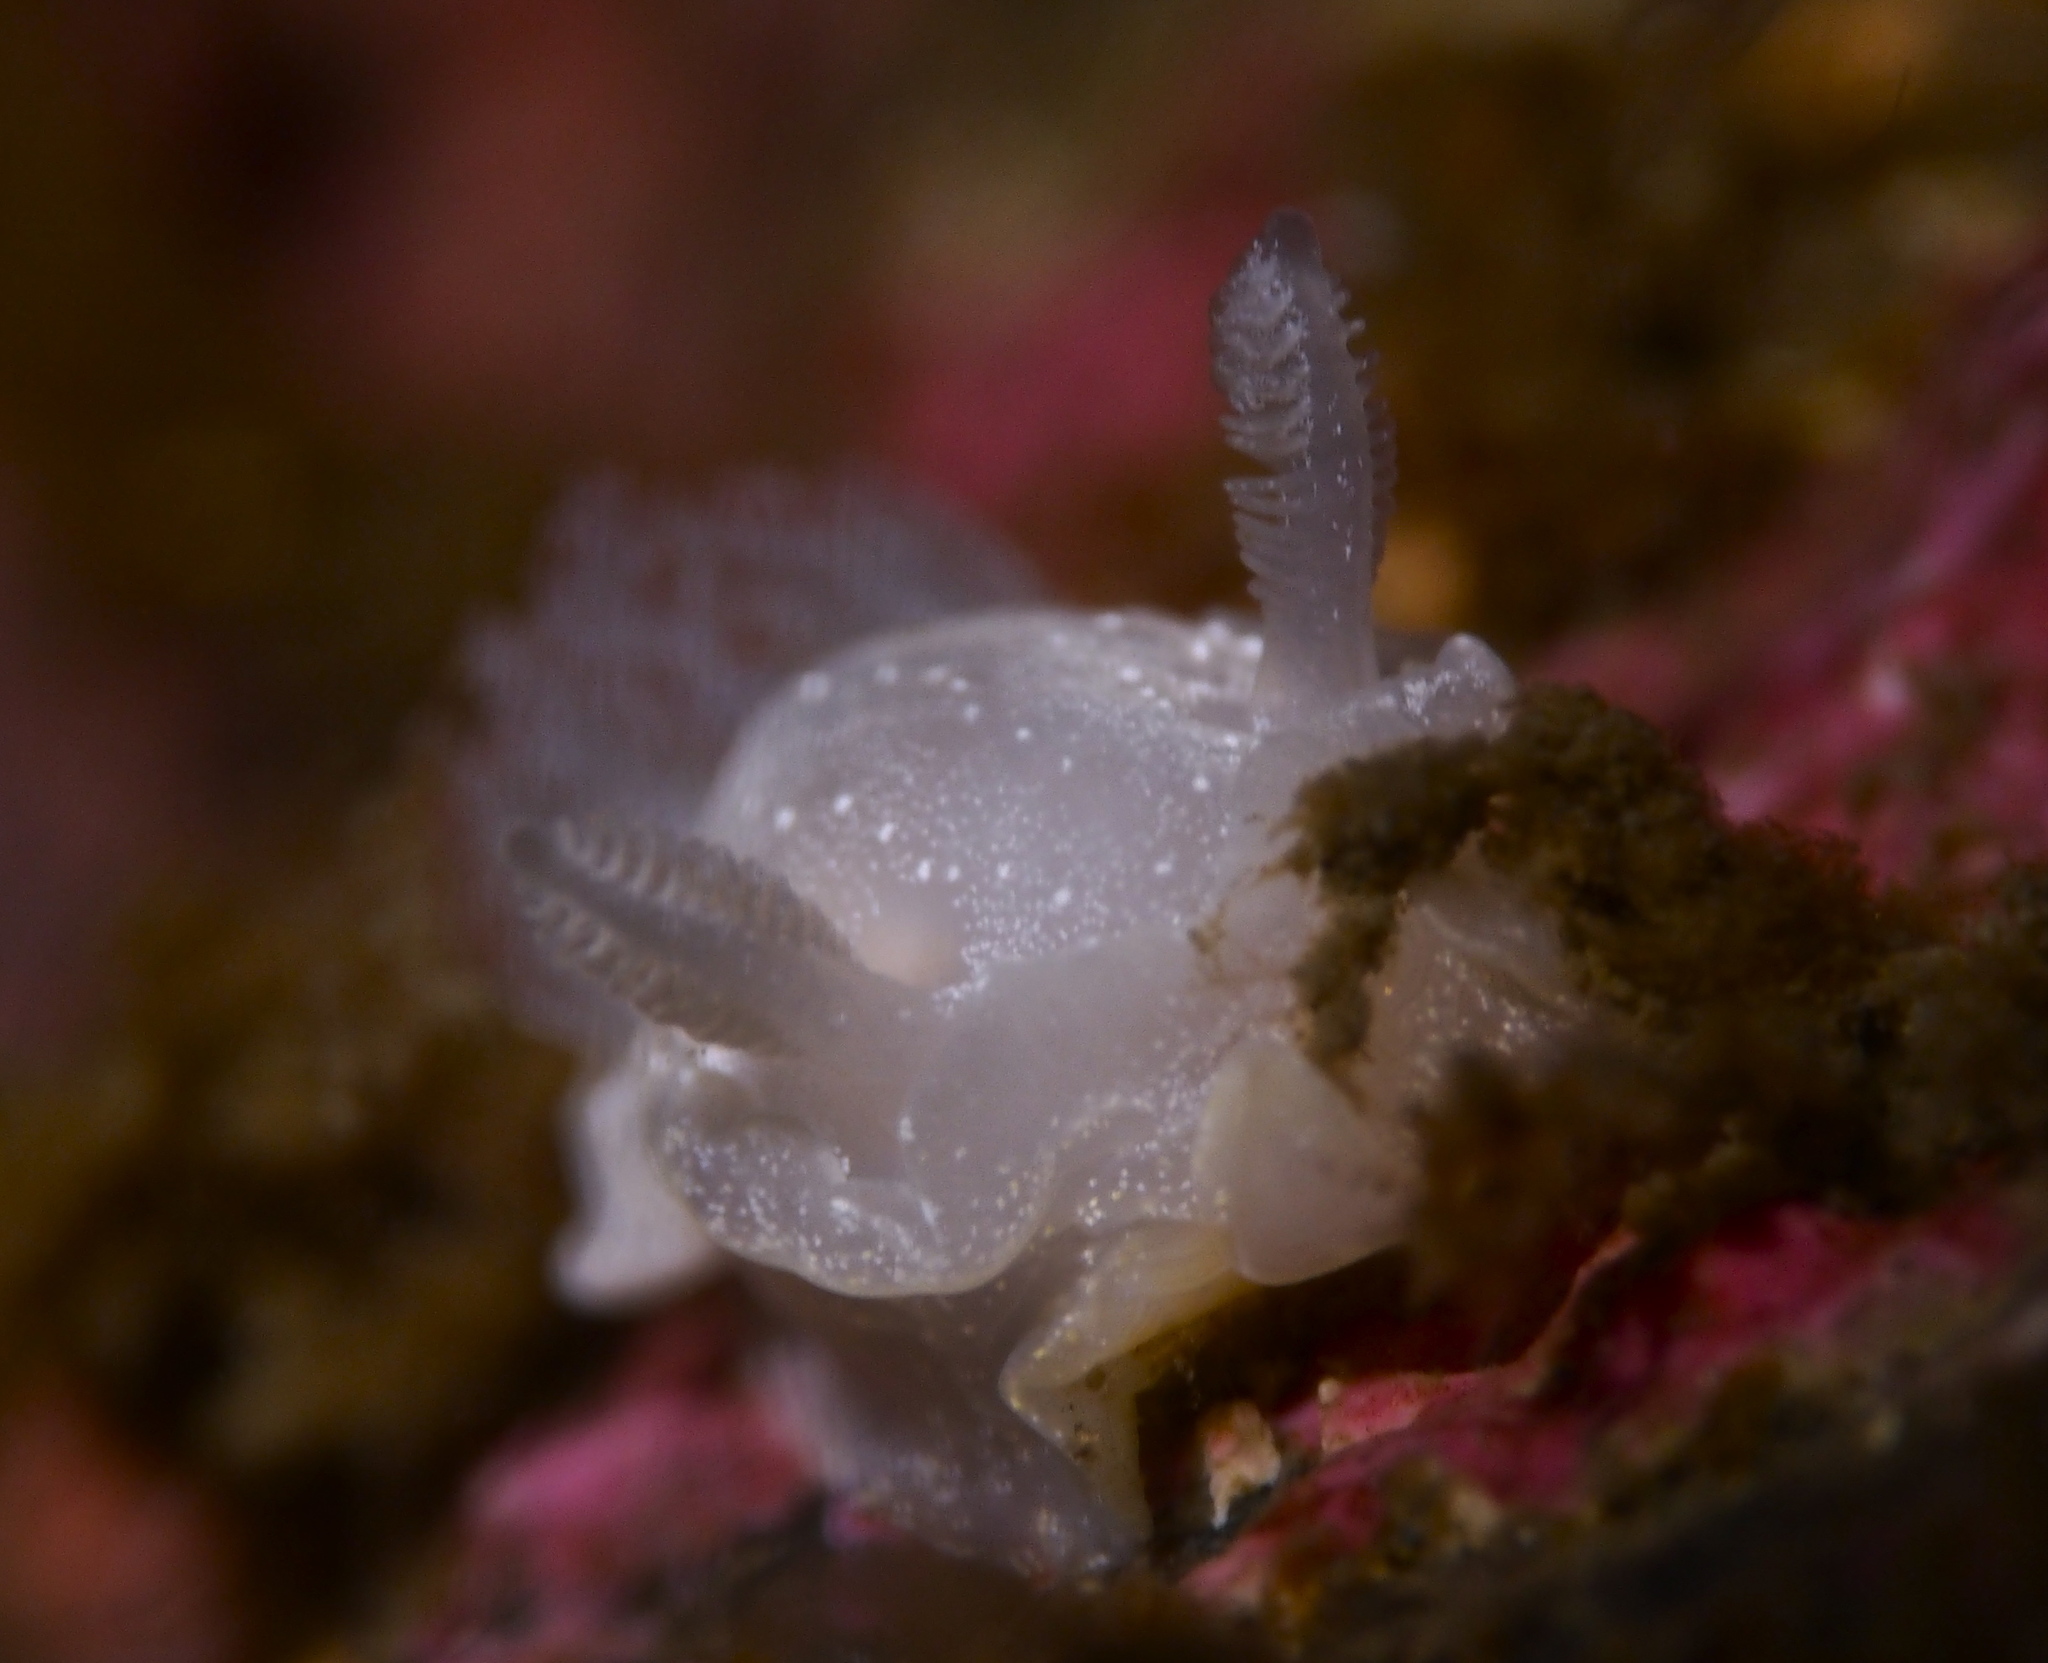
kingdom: Animalia
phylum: Mollusca
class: Gastropoda
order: Nudibranchia
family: Goniodorididae
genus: Okenia
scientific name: Okenia
